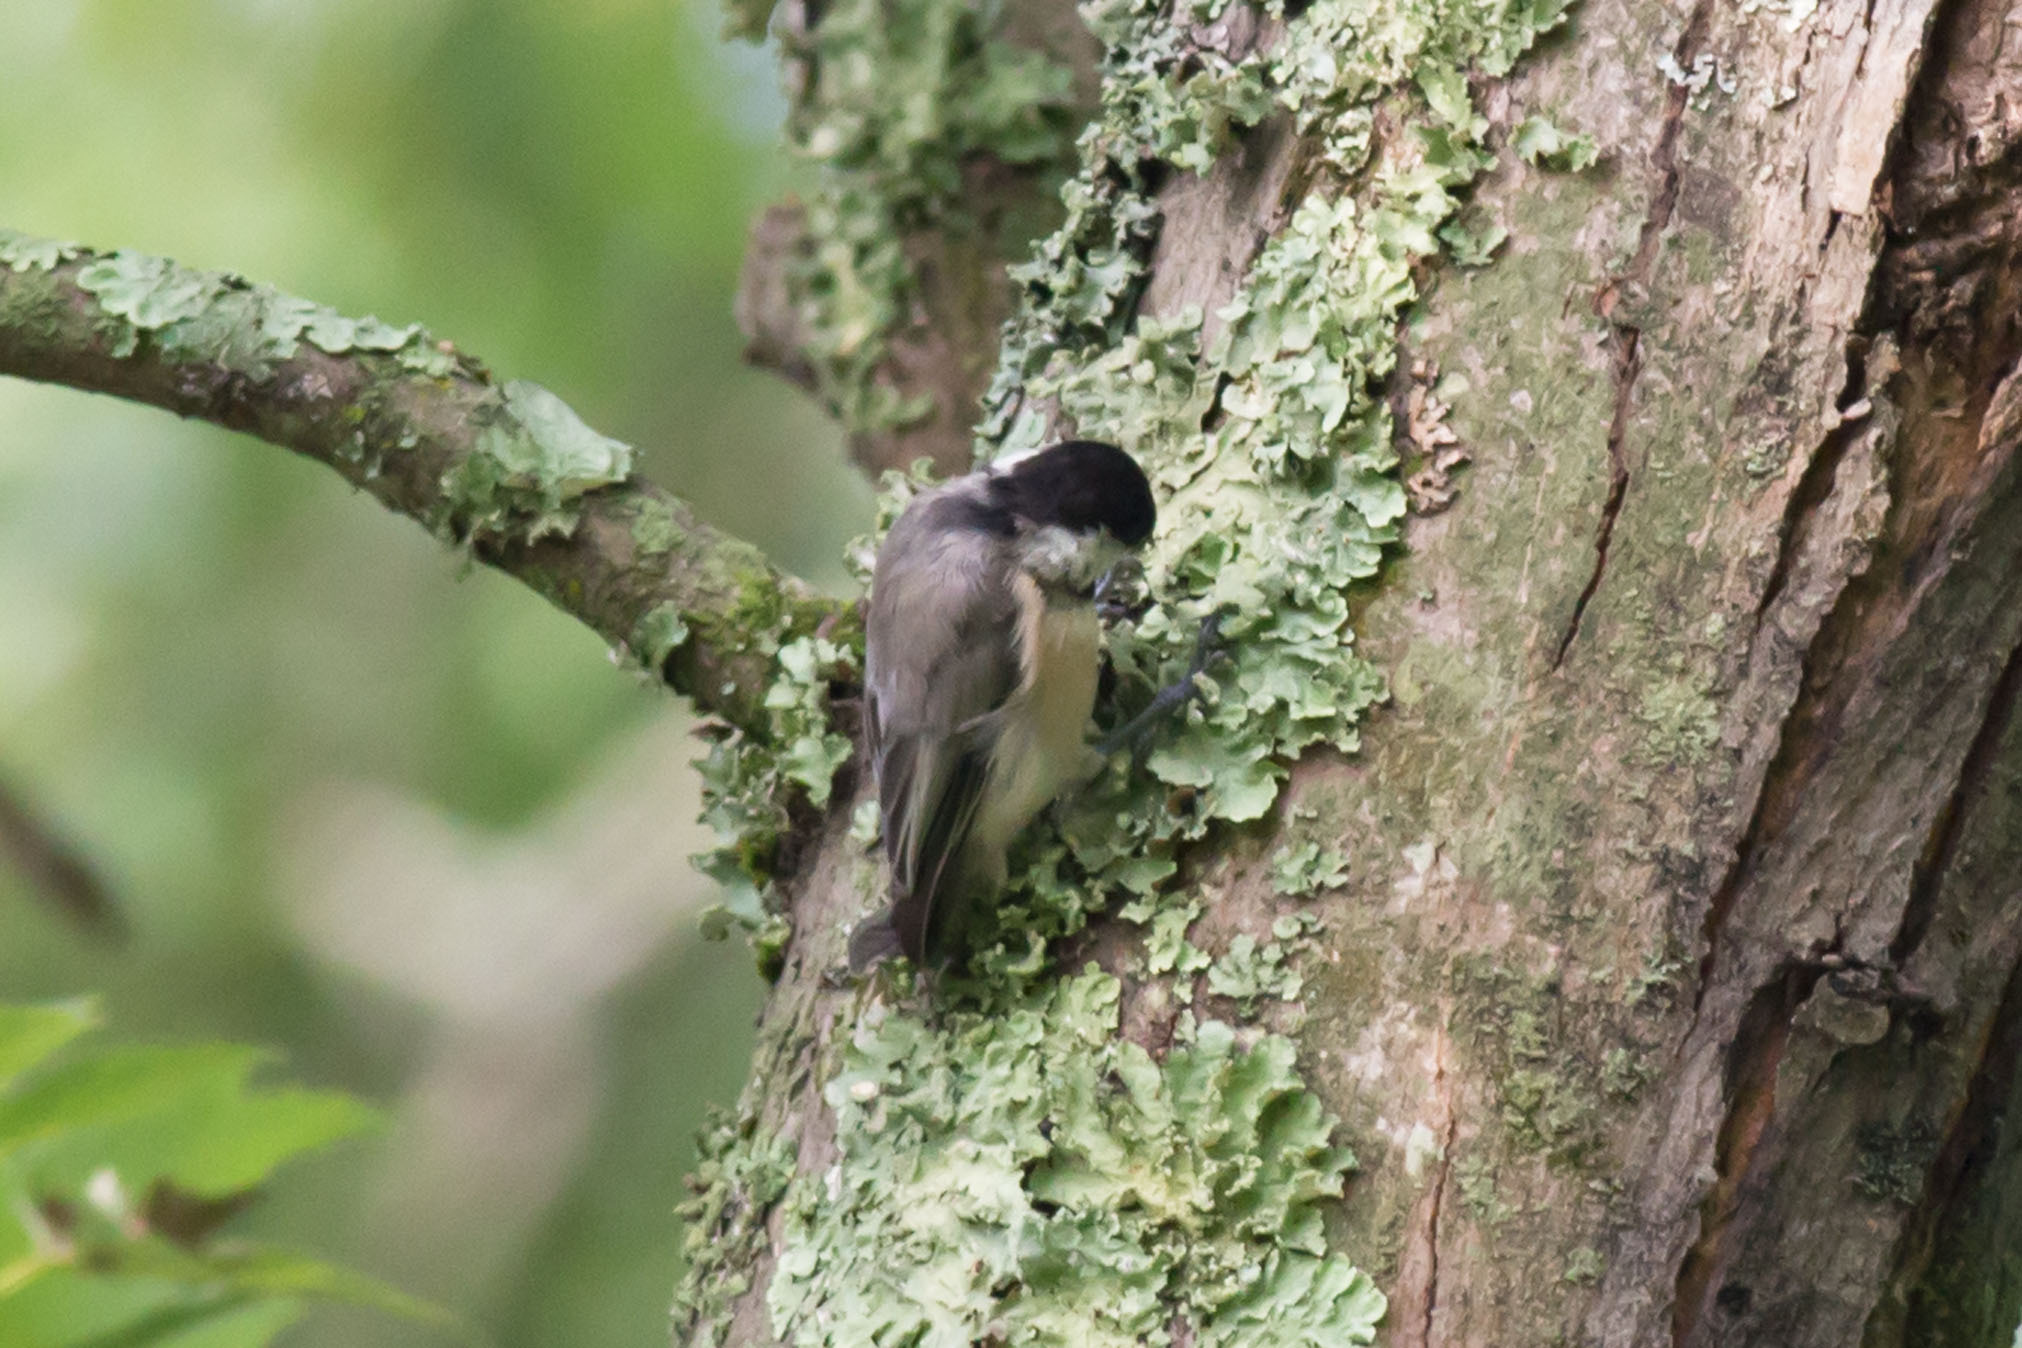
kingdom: Animalia
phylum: Chordata
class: Aves
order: Passeriformes
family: Paridae
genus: Poecile
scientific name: Poecile carolinensis
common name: Carolina chickadee
